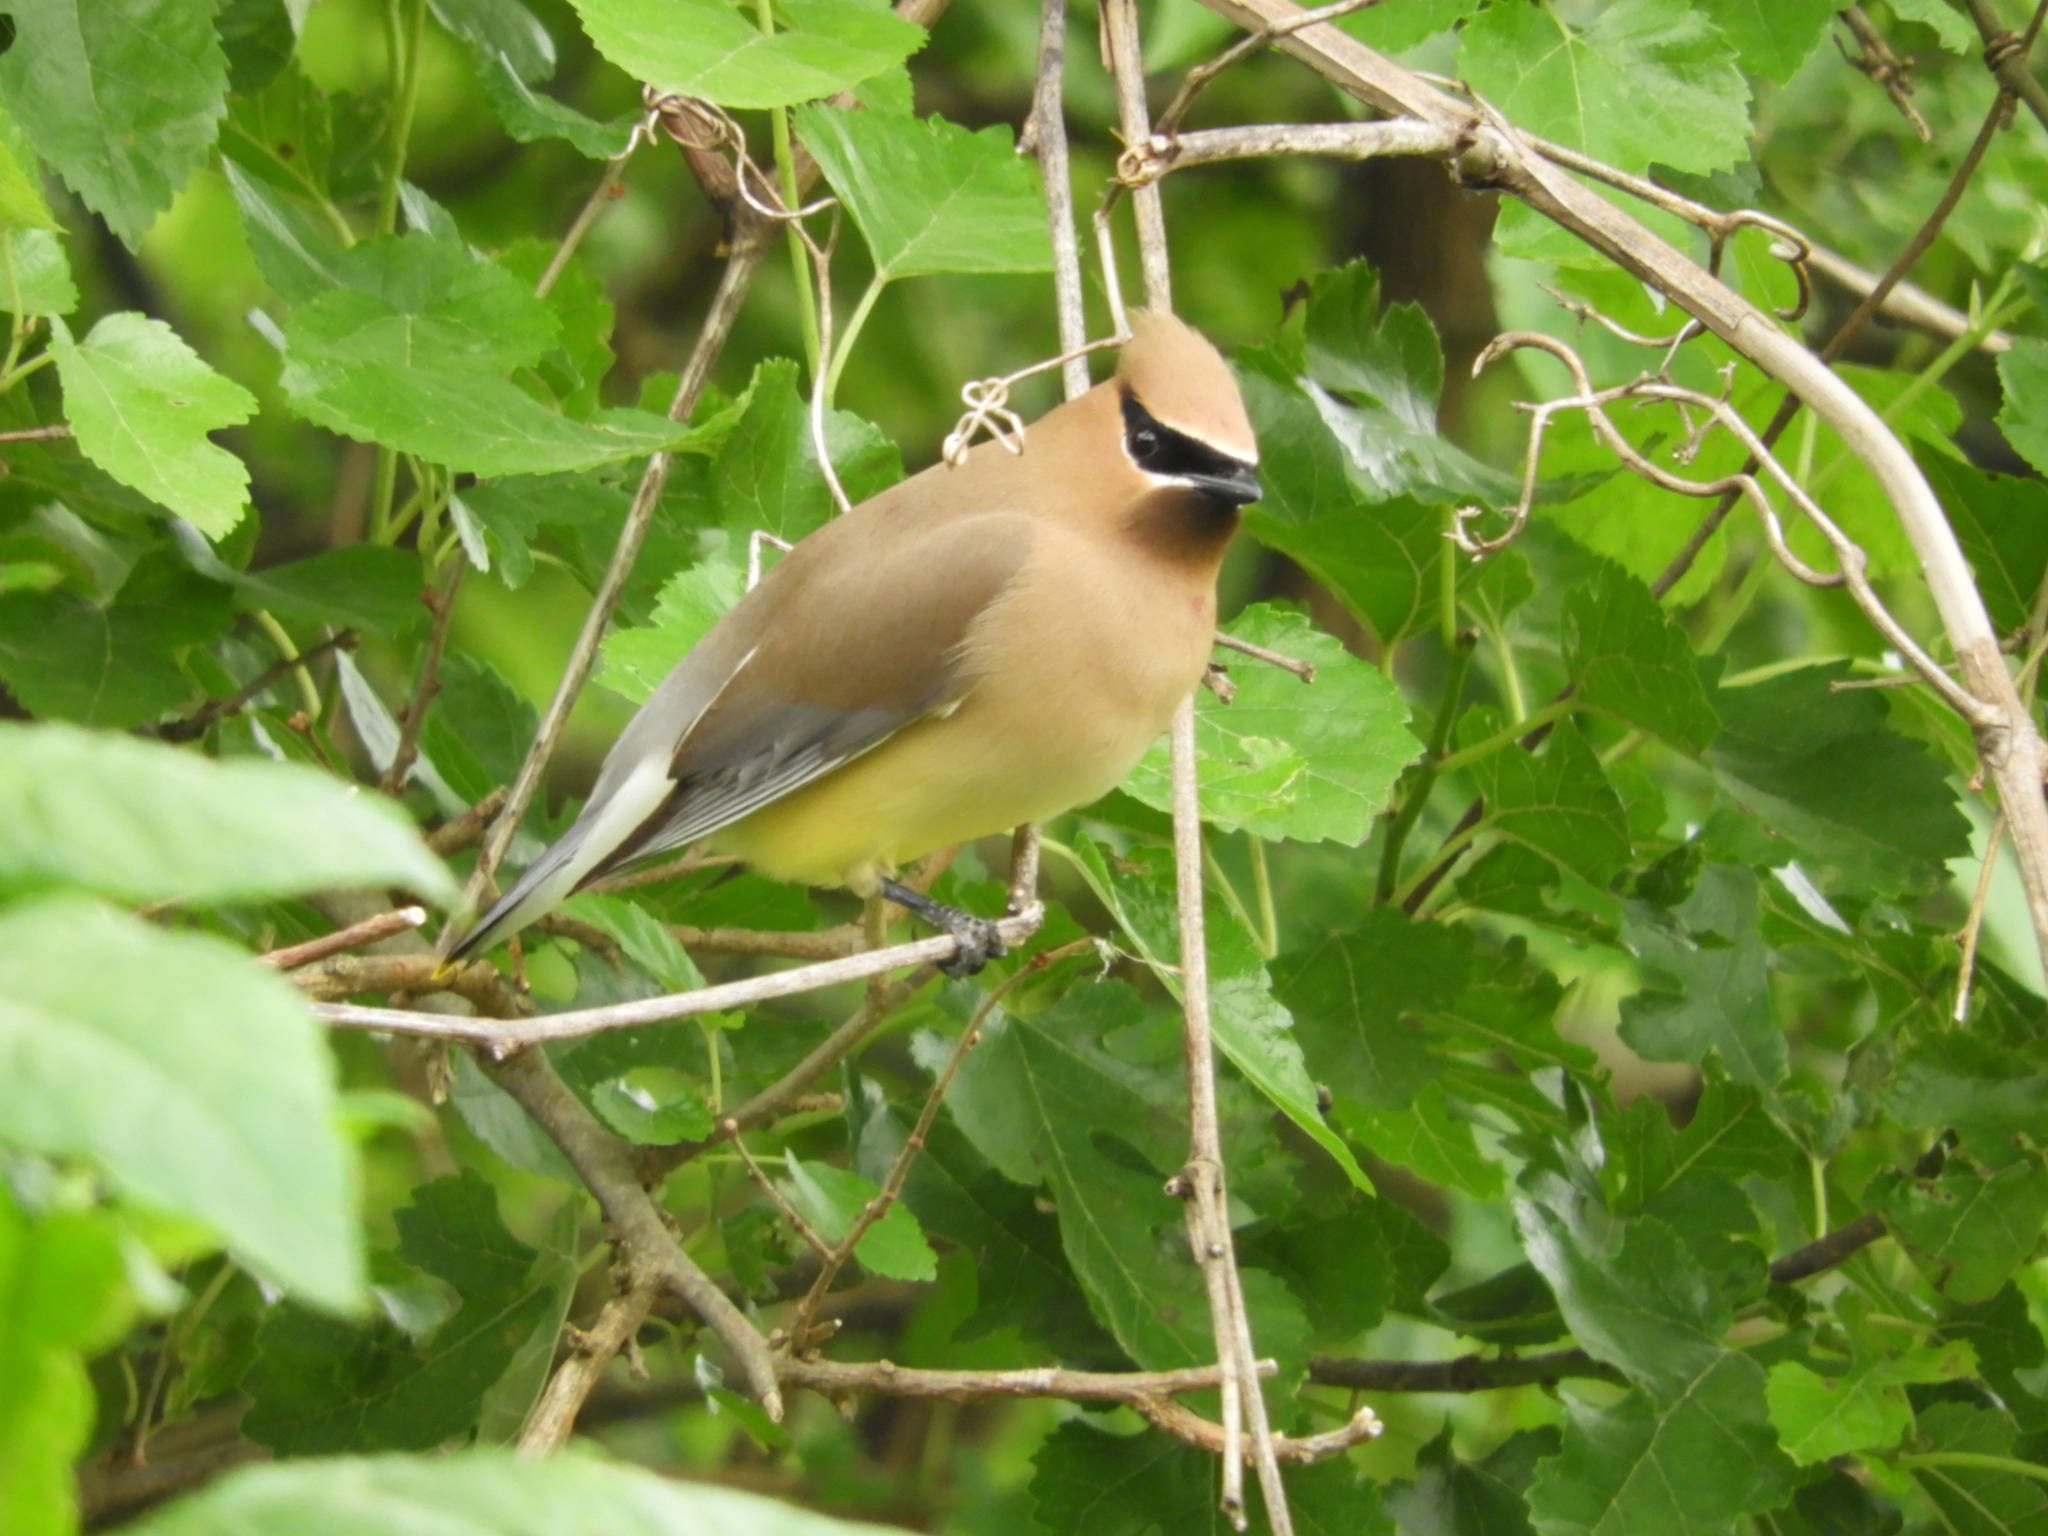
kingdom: Animalia
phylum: Chordata
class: Aves
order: Passeriformes
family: Bombycillidae
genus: Bombycilla
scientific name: Bombycilla cedrorum
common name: Cedar waxwing
